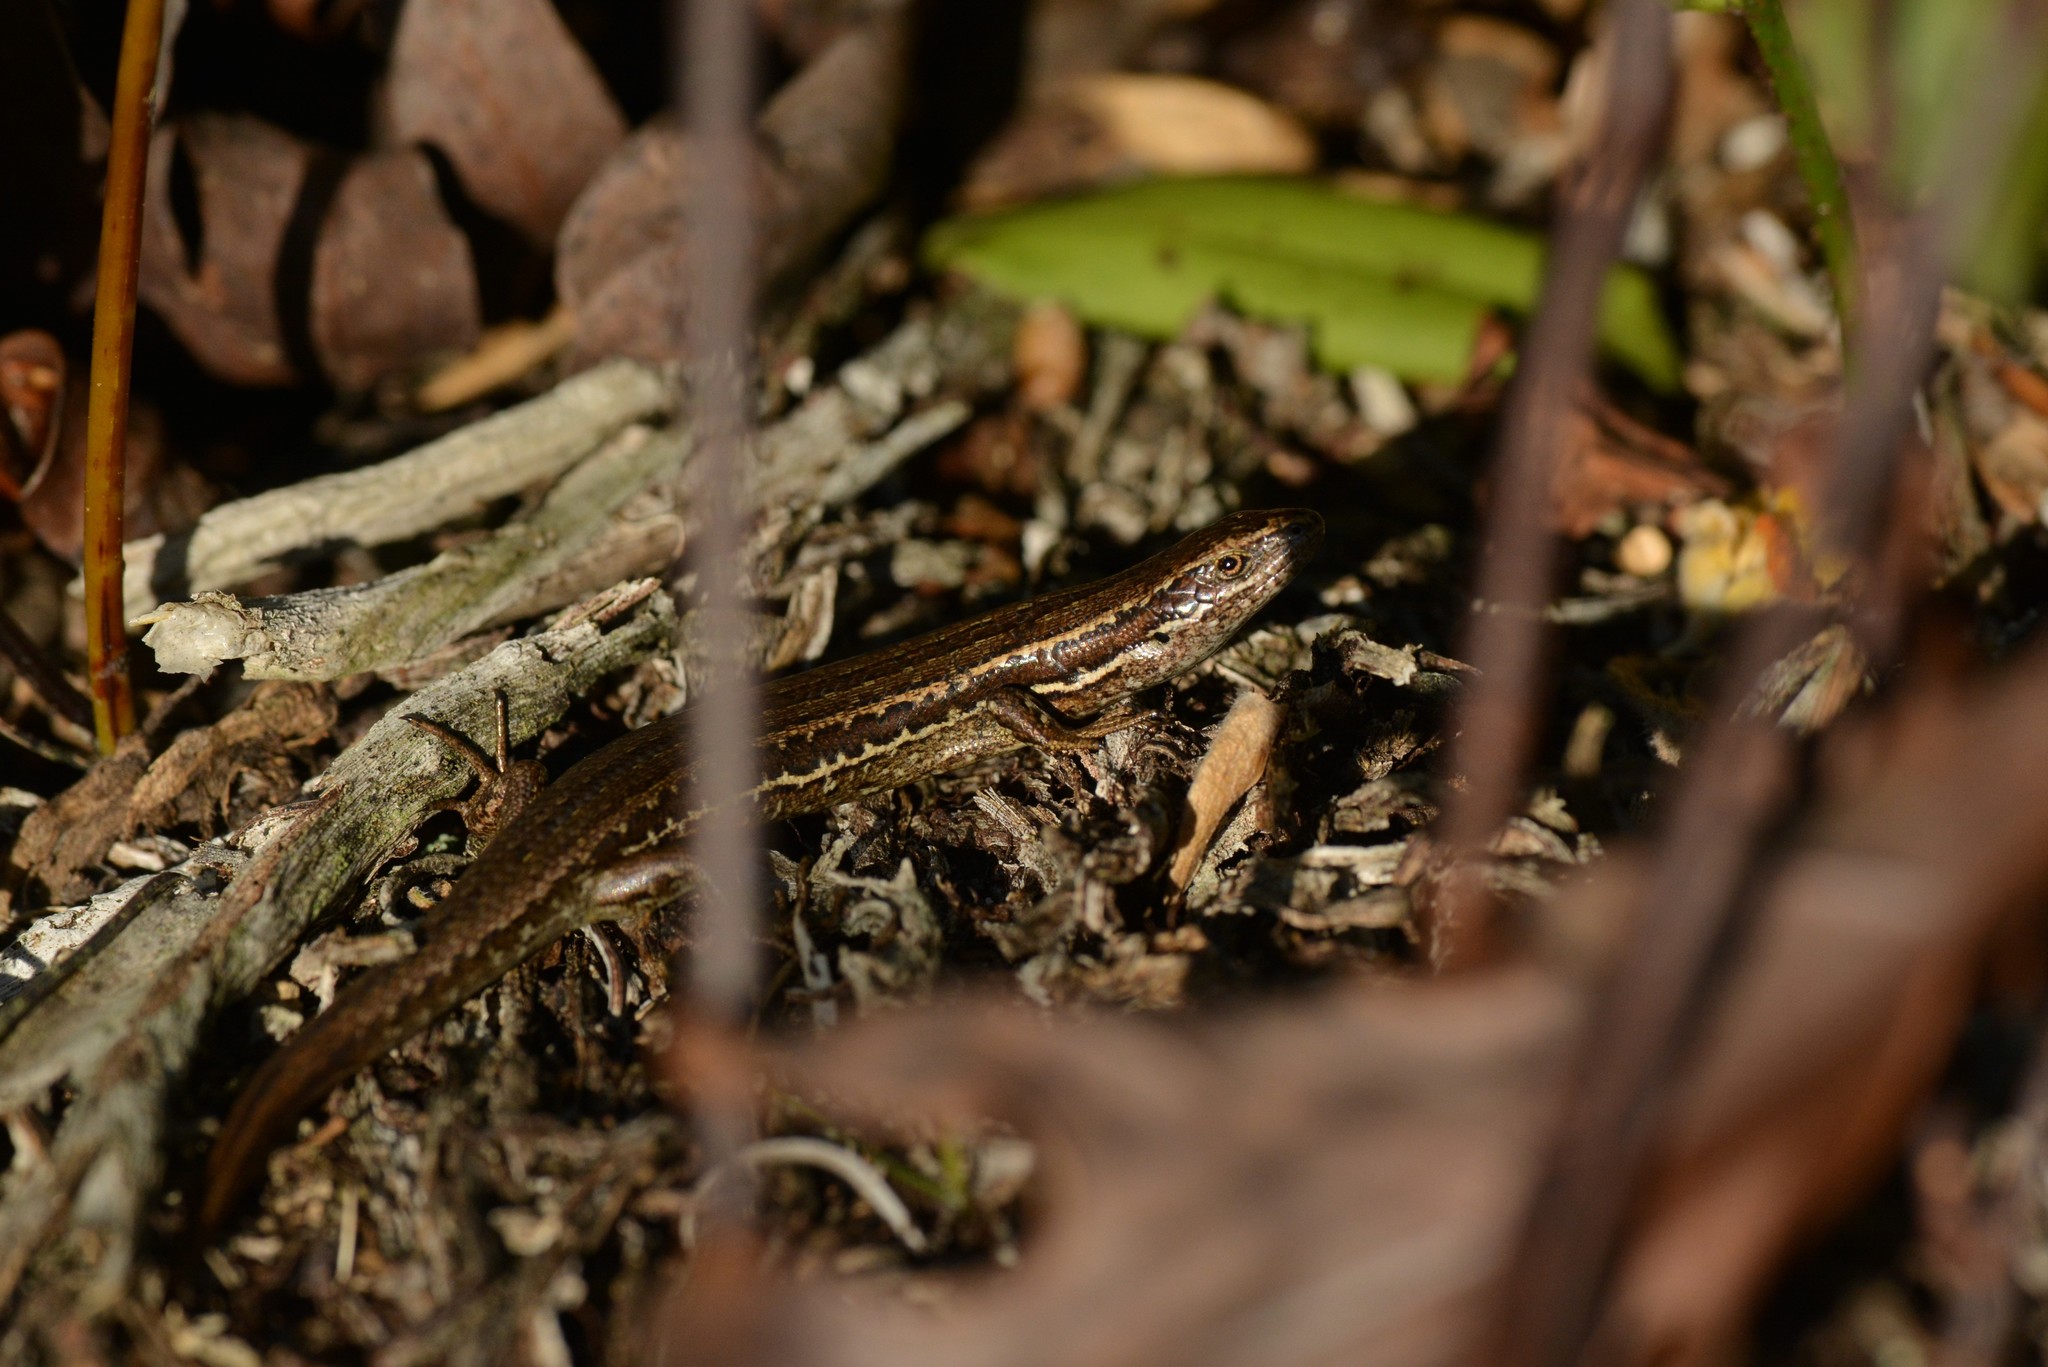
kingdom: Animalia
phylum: Chordata
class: Squamata
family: Scincidae
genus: Oligosoma
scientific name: Oligosoma polychroma
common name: Common new zealand skink
